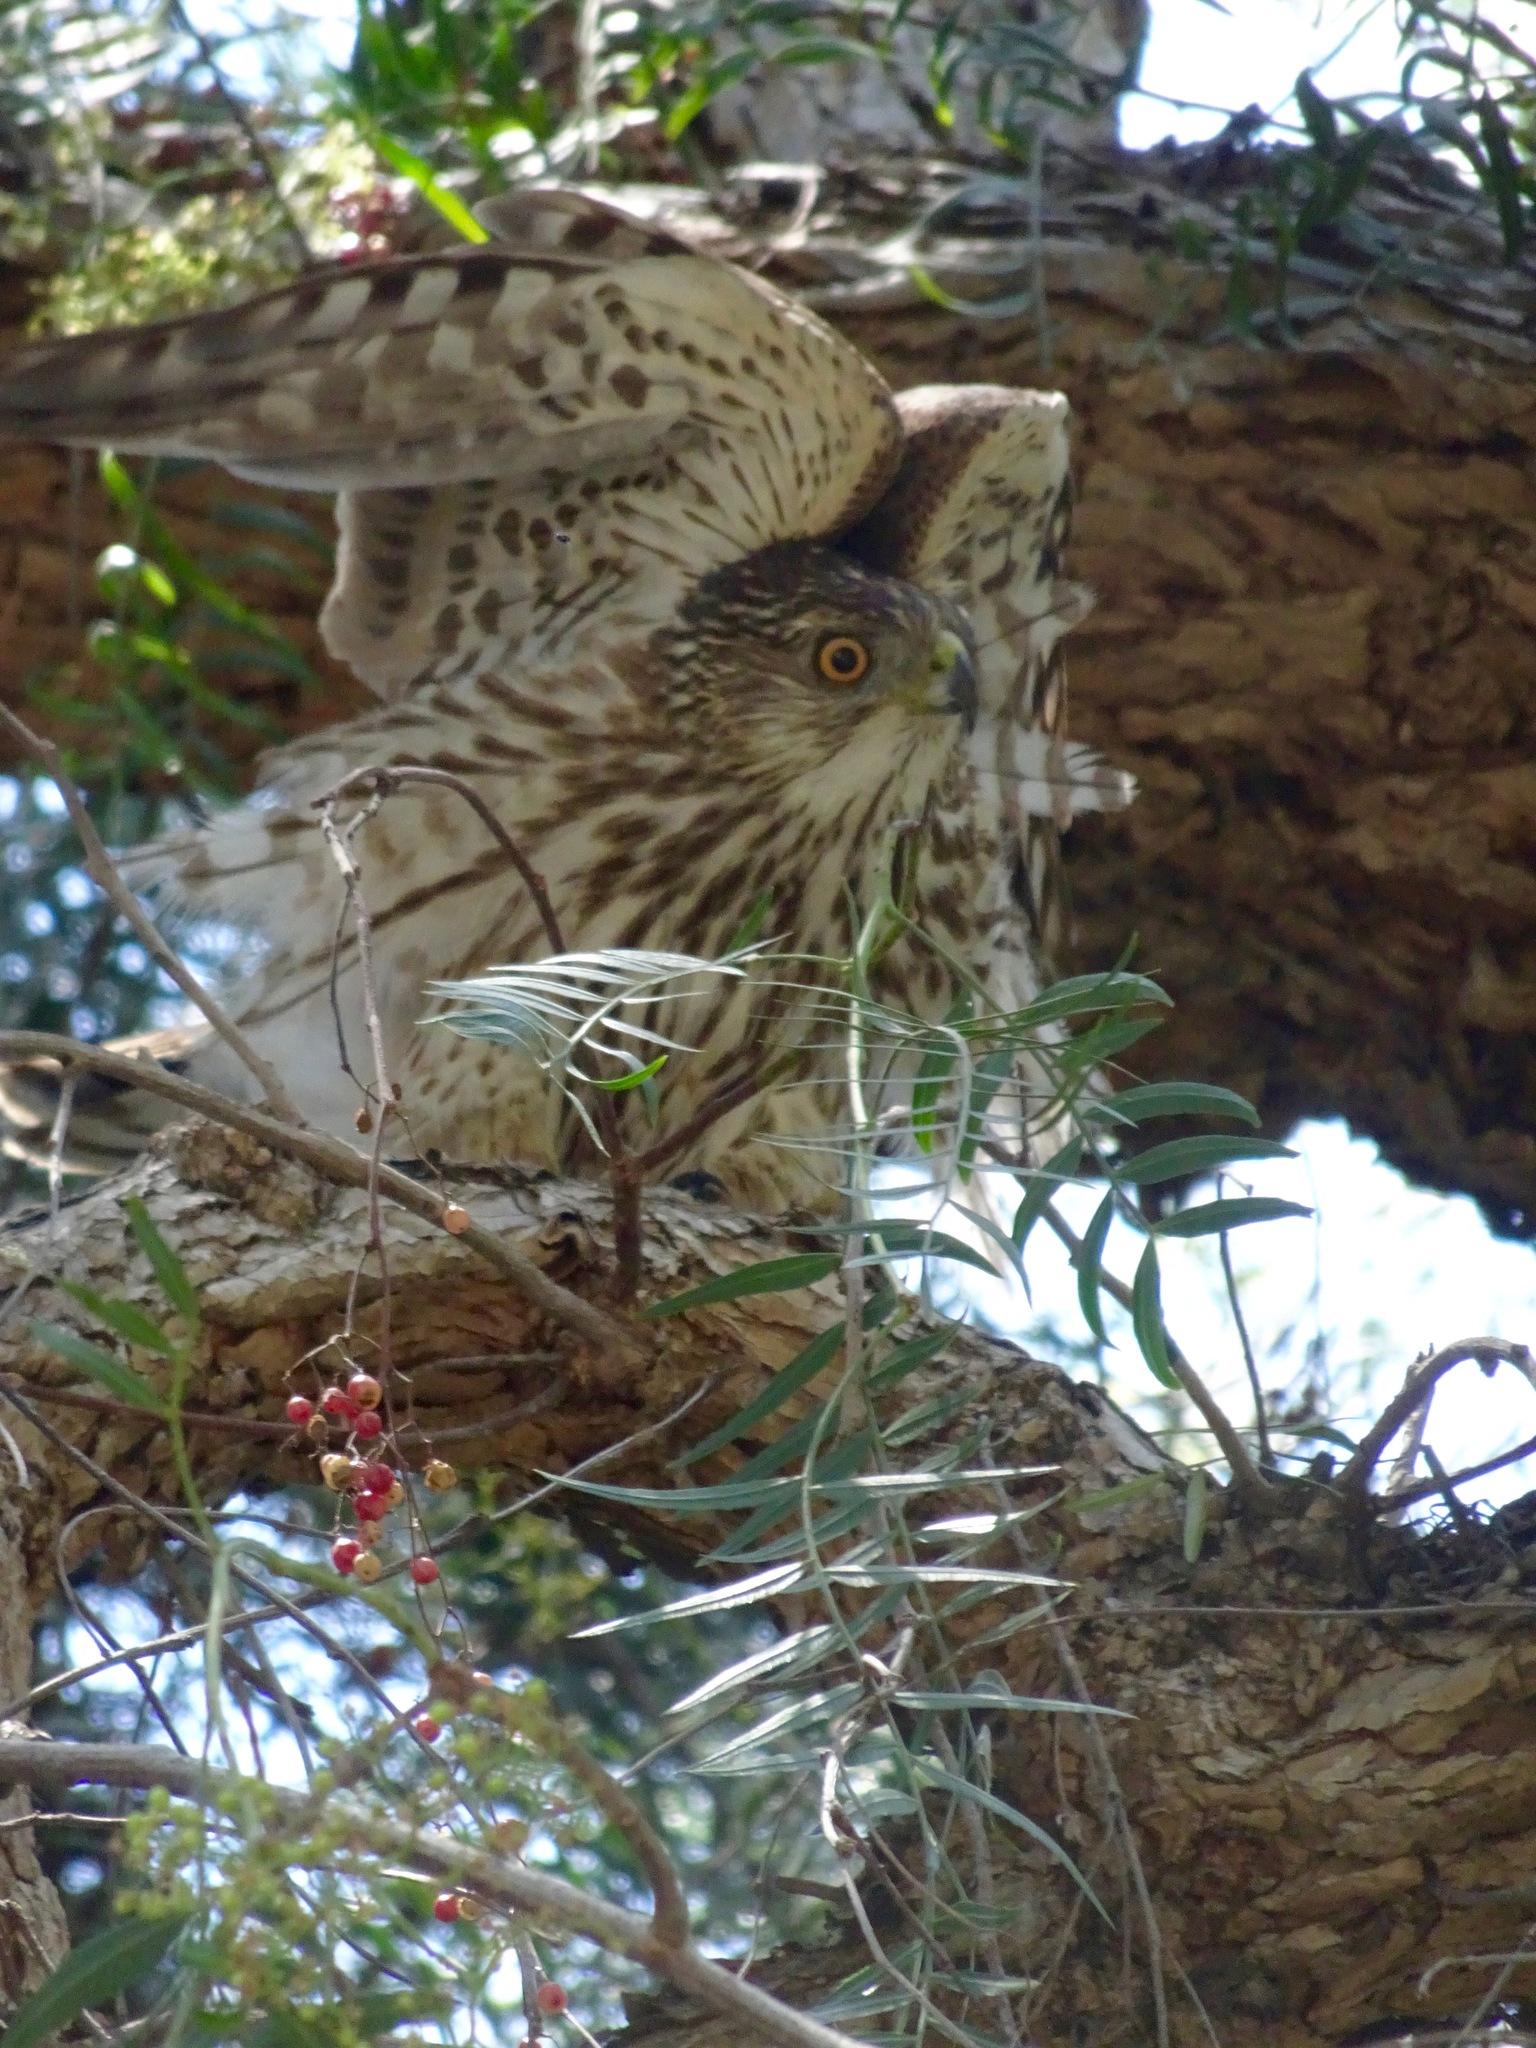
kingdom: Animalia
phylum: Chordata
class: Aves
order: Accipitriformes
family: Accipitridae
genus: Accipiter
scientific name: Accipiter cooperii
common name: Cooper's hawk
